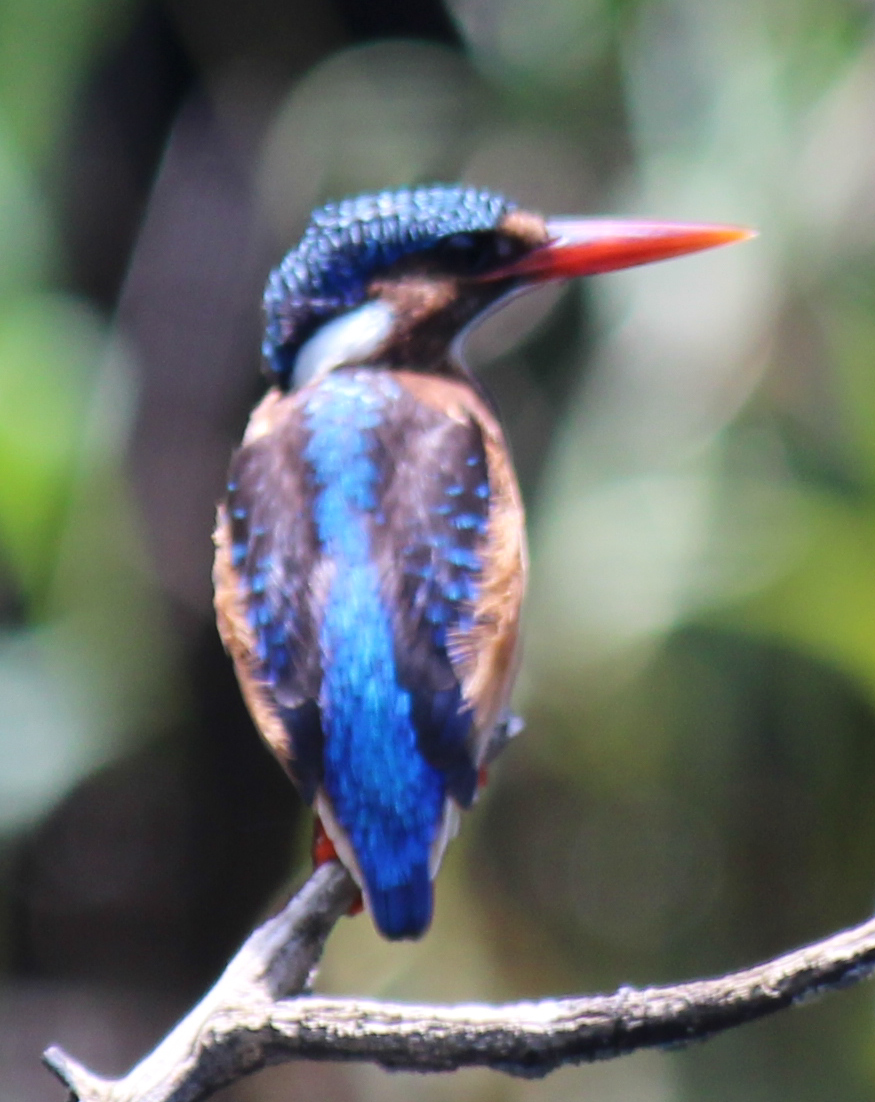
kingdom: Animalia
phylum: Chordata
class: Aves
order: Coraciiformes
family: Alcedinidae
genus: Corythornis
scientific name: Corythornis cristatus
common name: Malachite kingfisher
